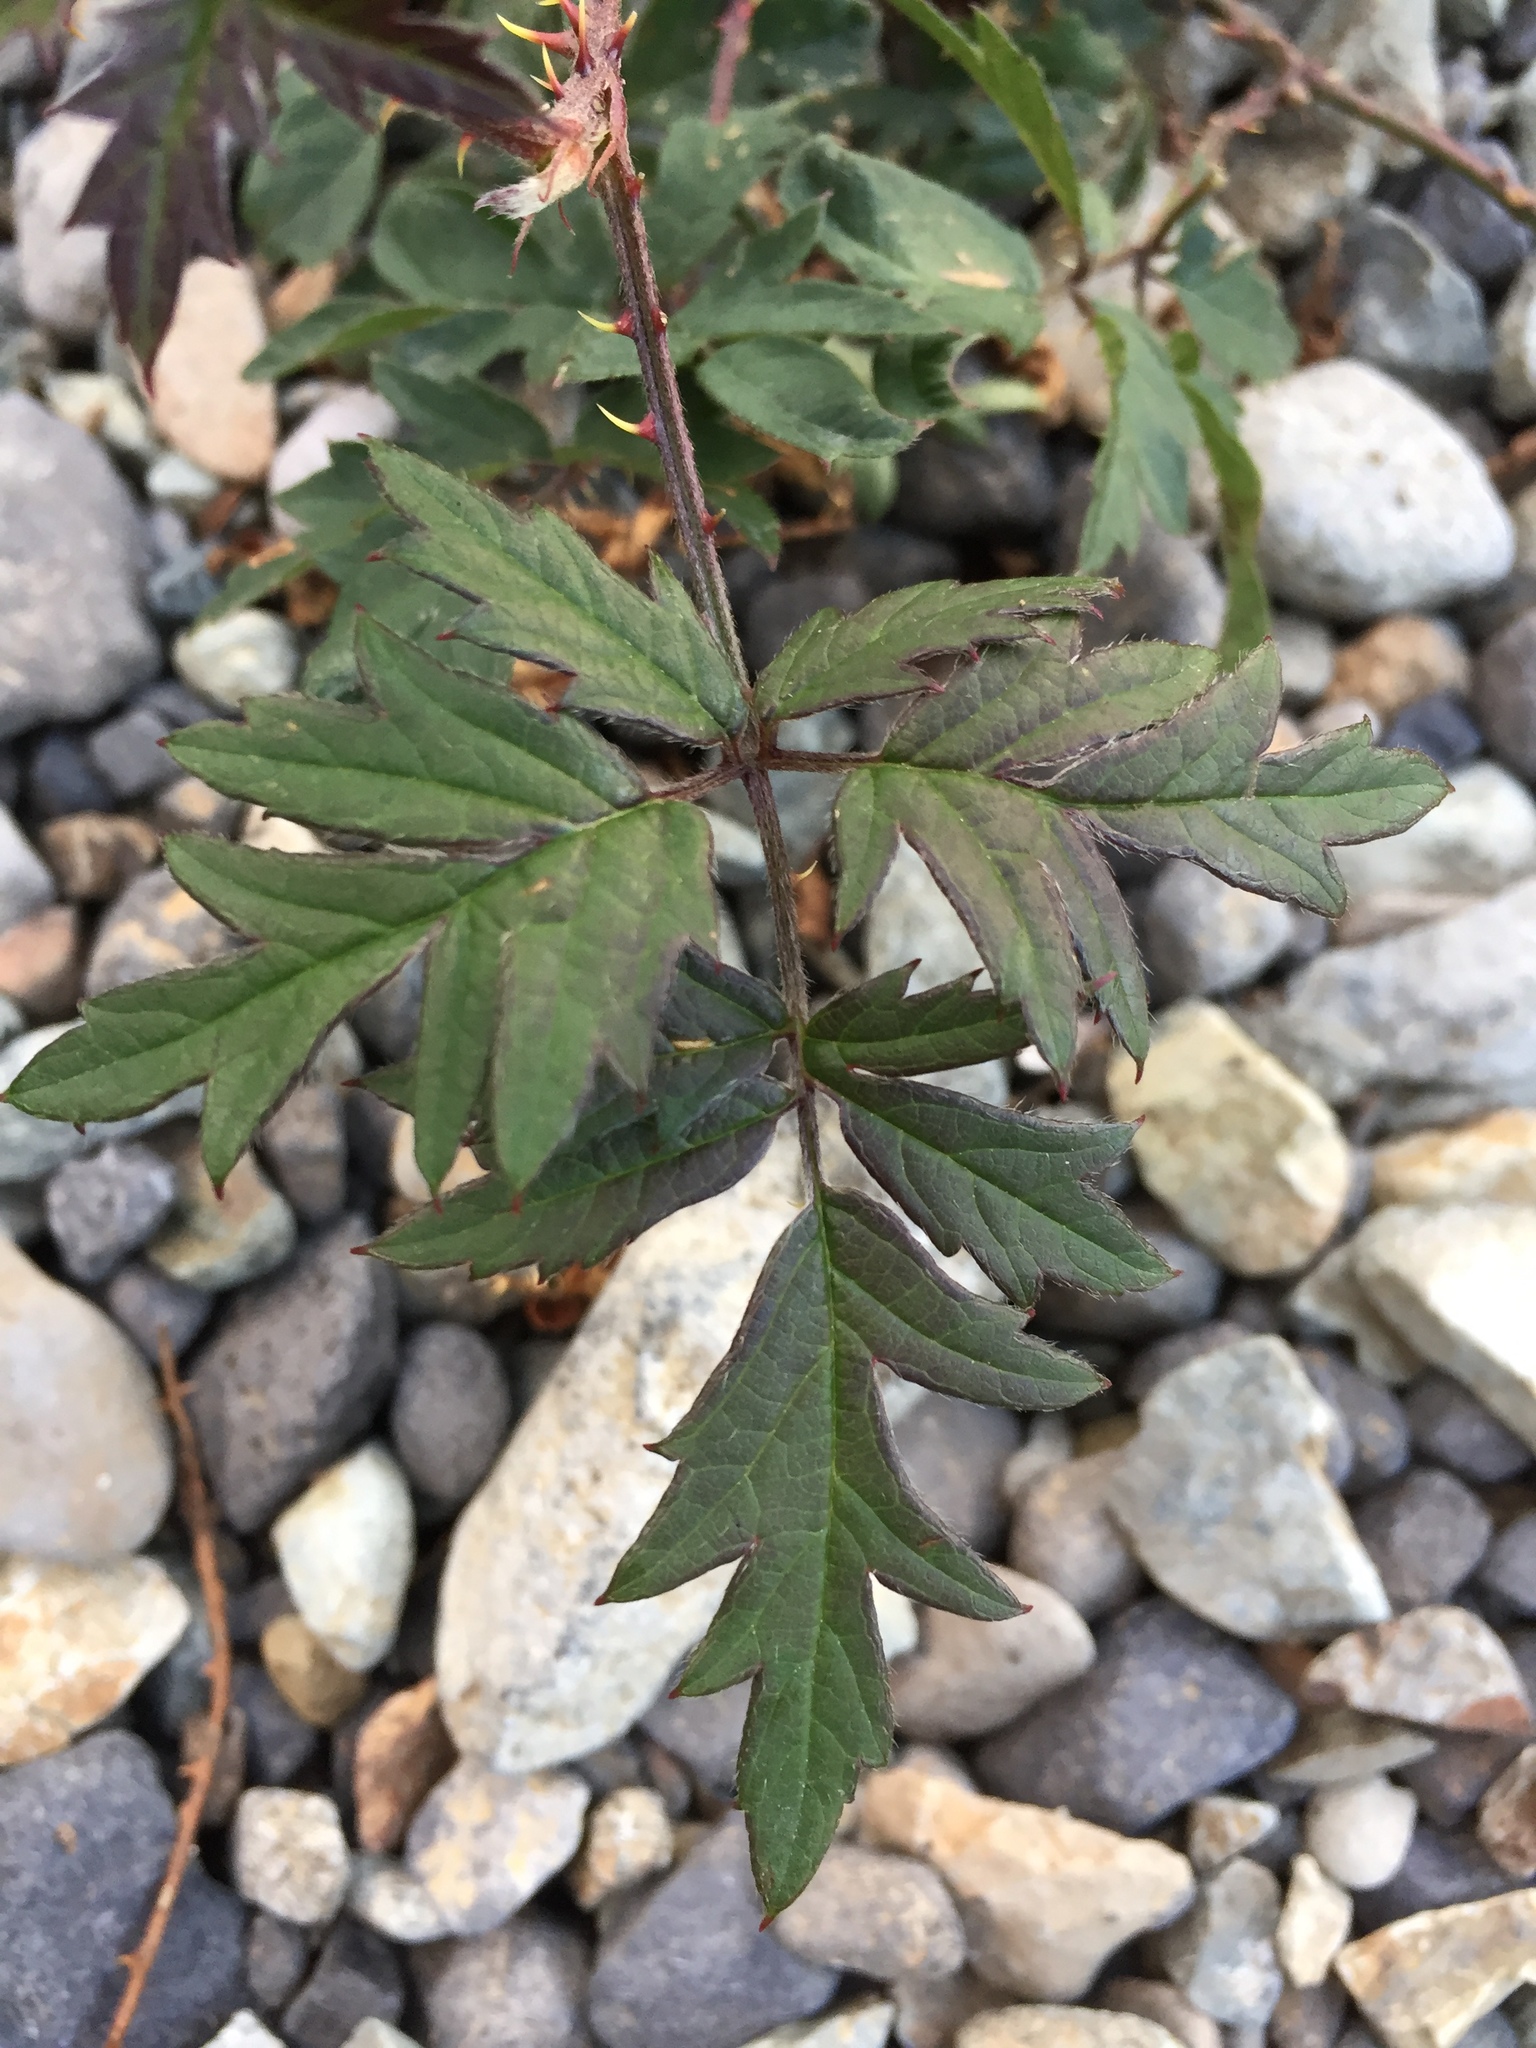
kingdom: Plantae
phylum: Tracheophyta
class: Magnoliopsida
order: Rosales
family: Rosaceae
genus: Rubus
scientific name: Rubus laciniatus
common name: Evergreen blackberry
